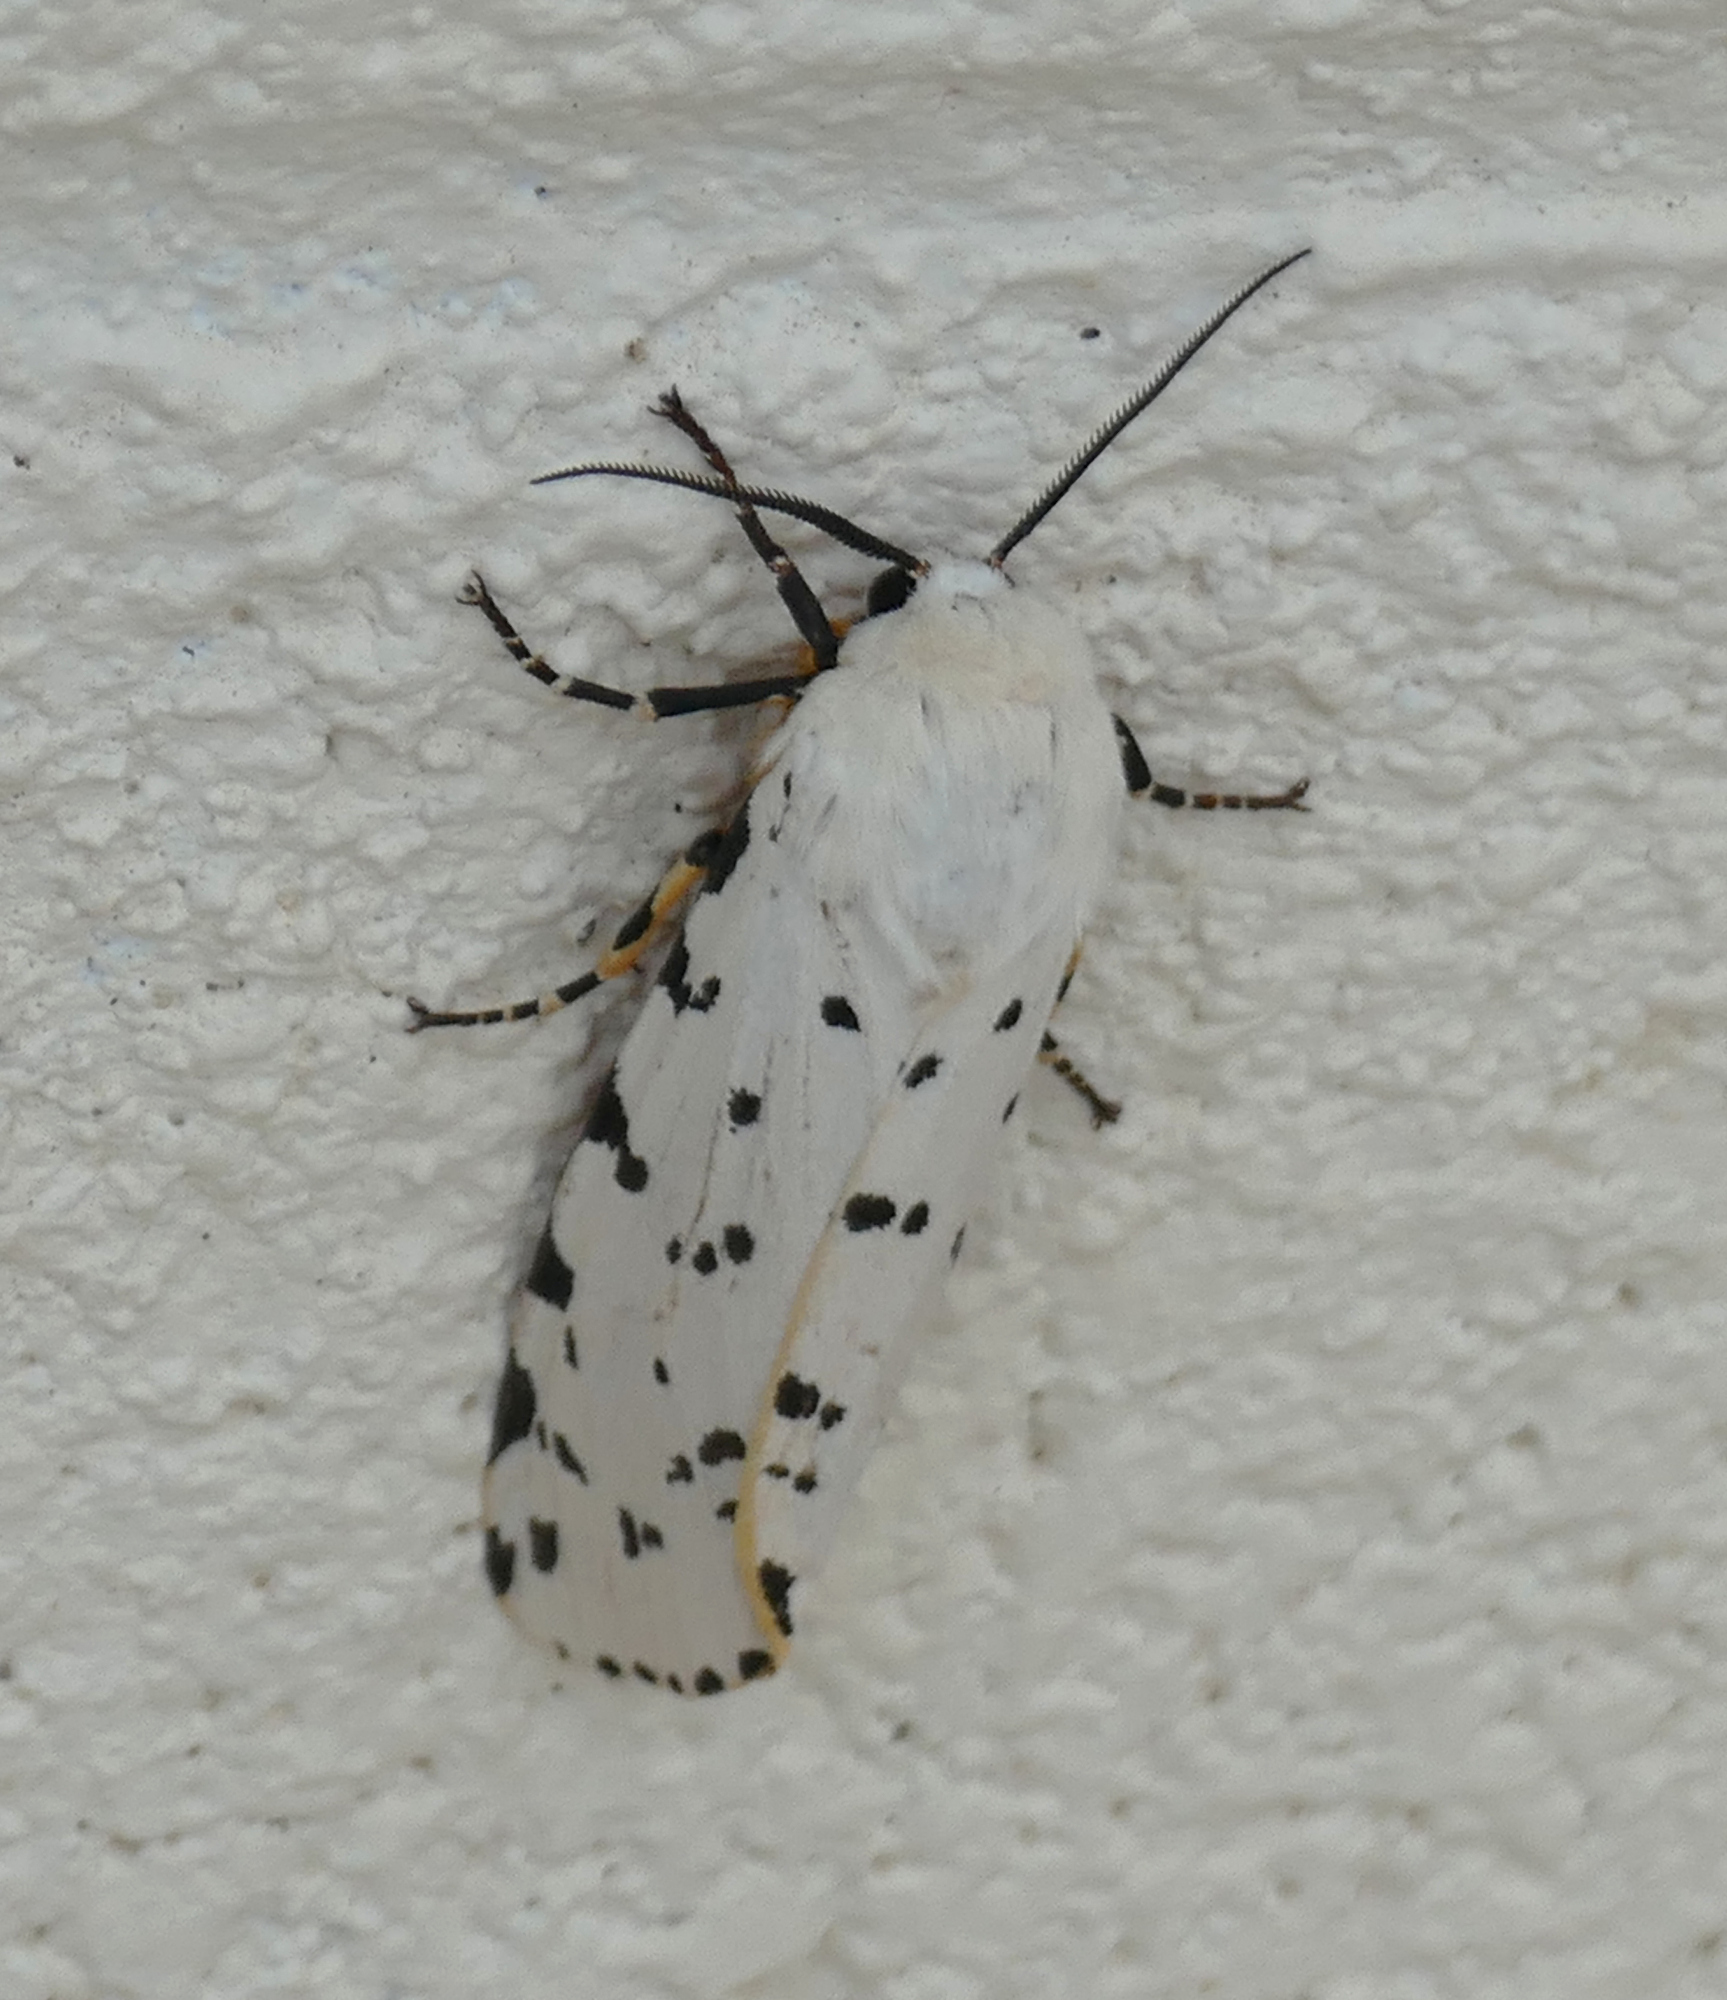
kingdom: Animalia
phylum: Arthropoda
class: Insecta
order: Lepidoptera
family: Erebidae
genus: Estigmene
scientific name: Estigmene acrea
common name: Salt marsh moth
